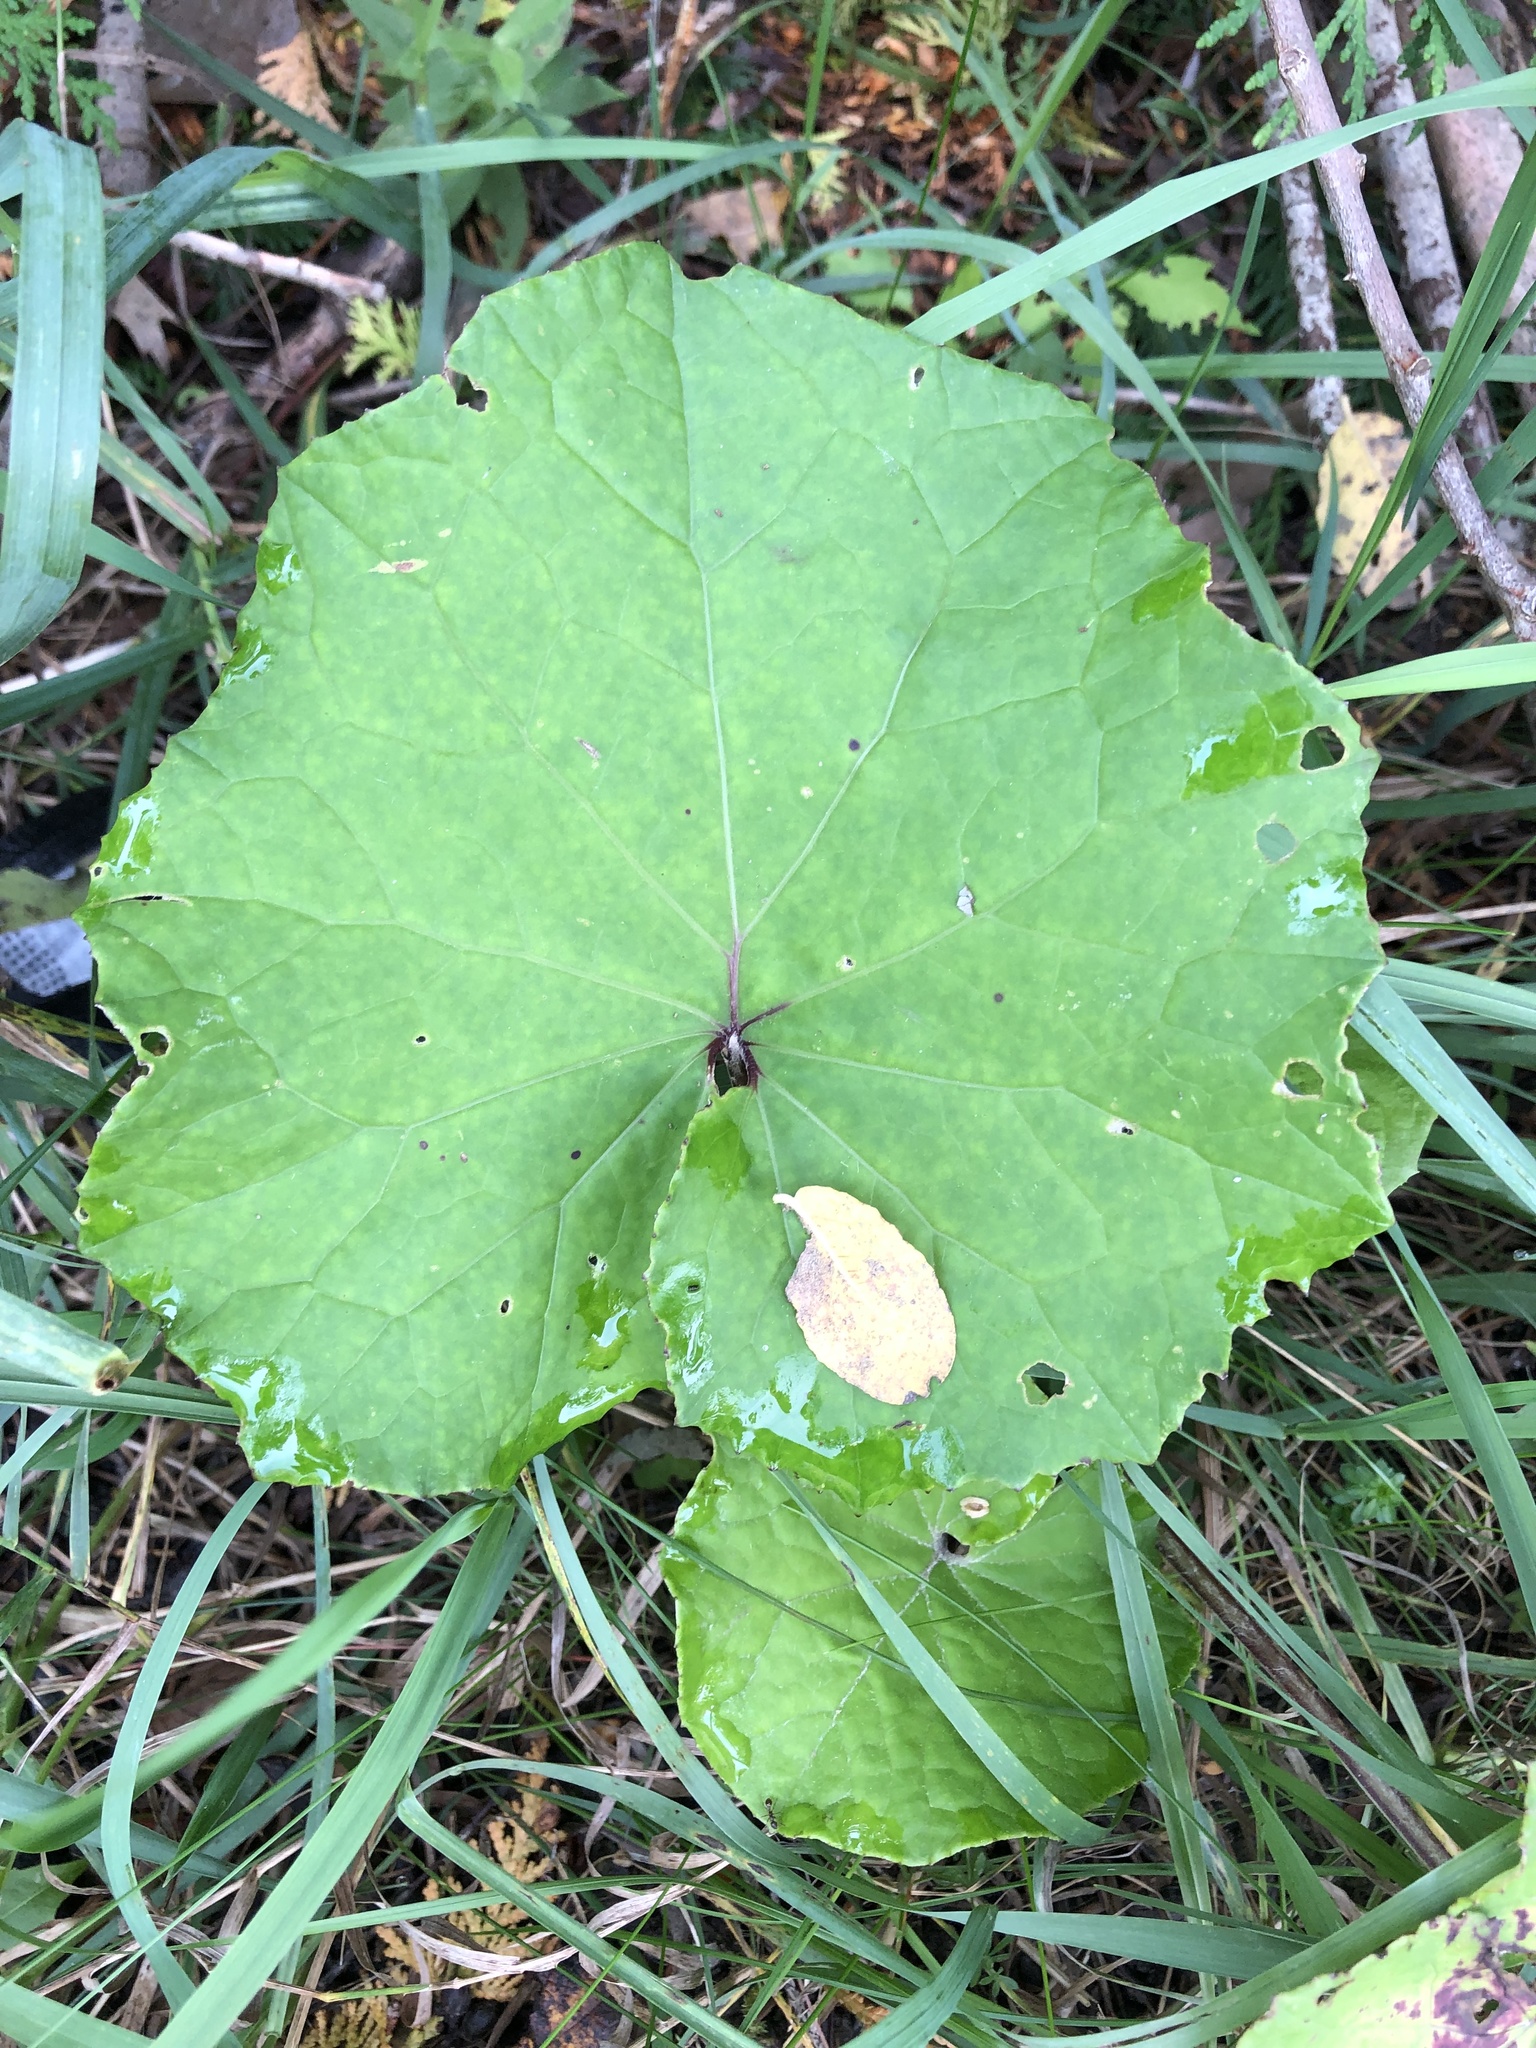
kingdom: Plantae
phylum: Tracheophyta
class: Magnoliopsida
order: Asterales
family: Asteraceae
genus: Tussilago
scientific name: Tussilago farfara
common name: Coltsfoot
